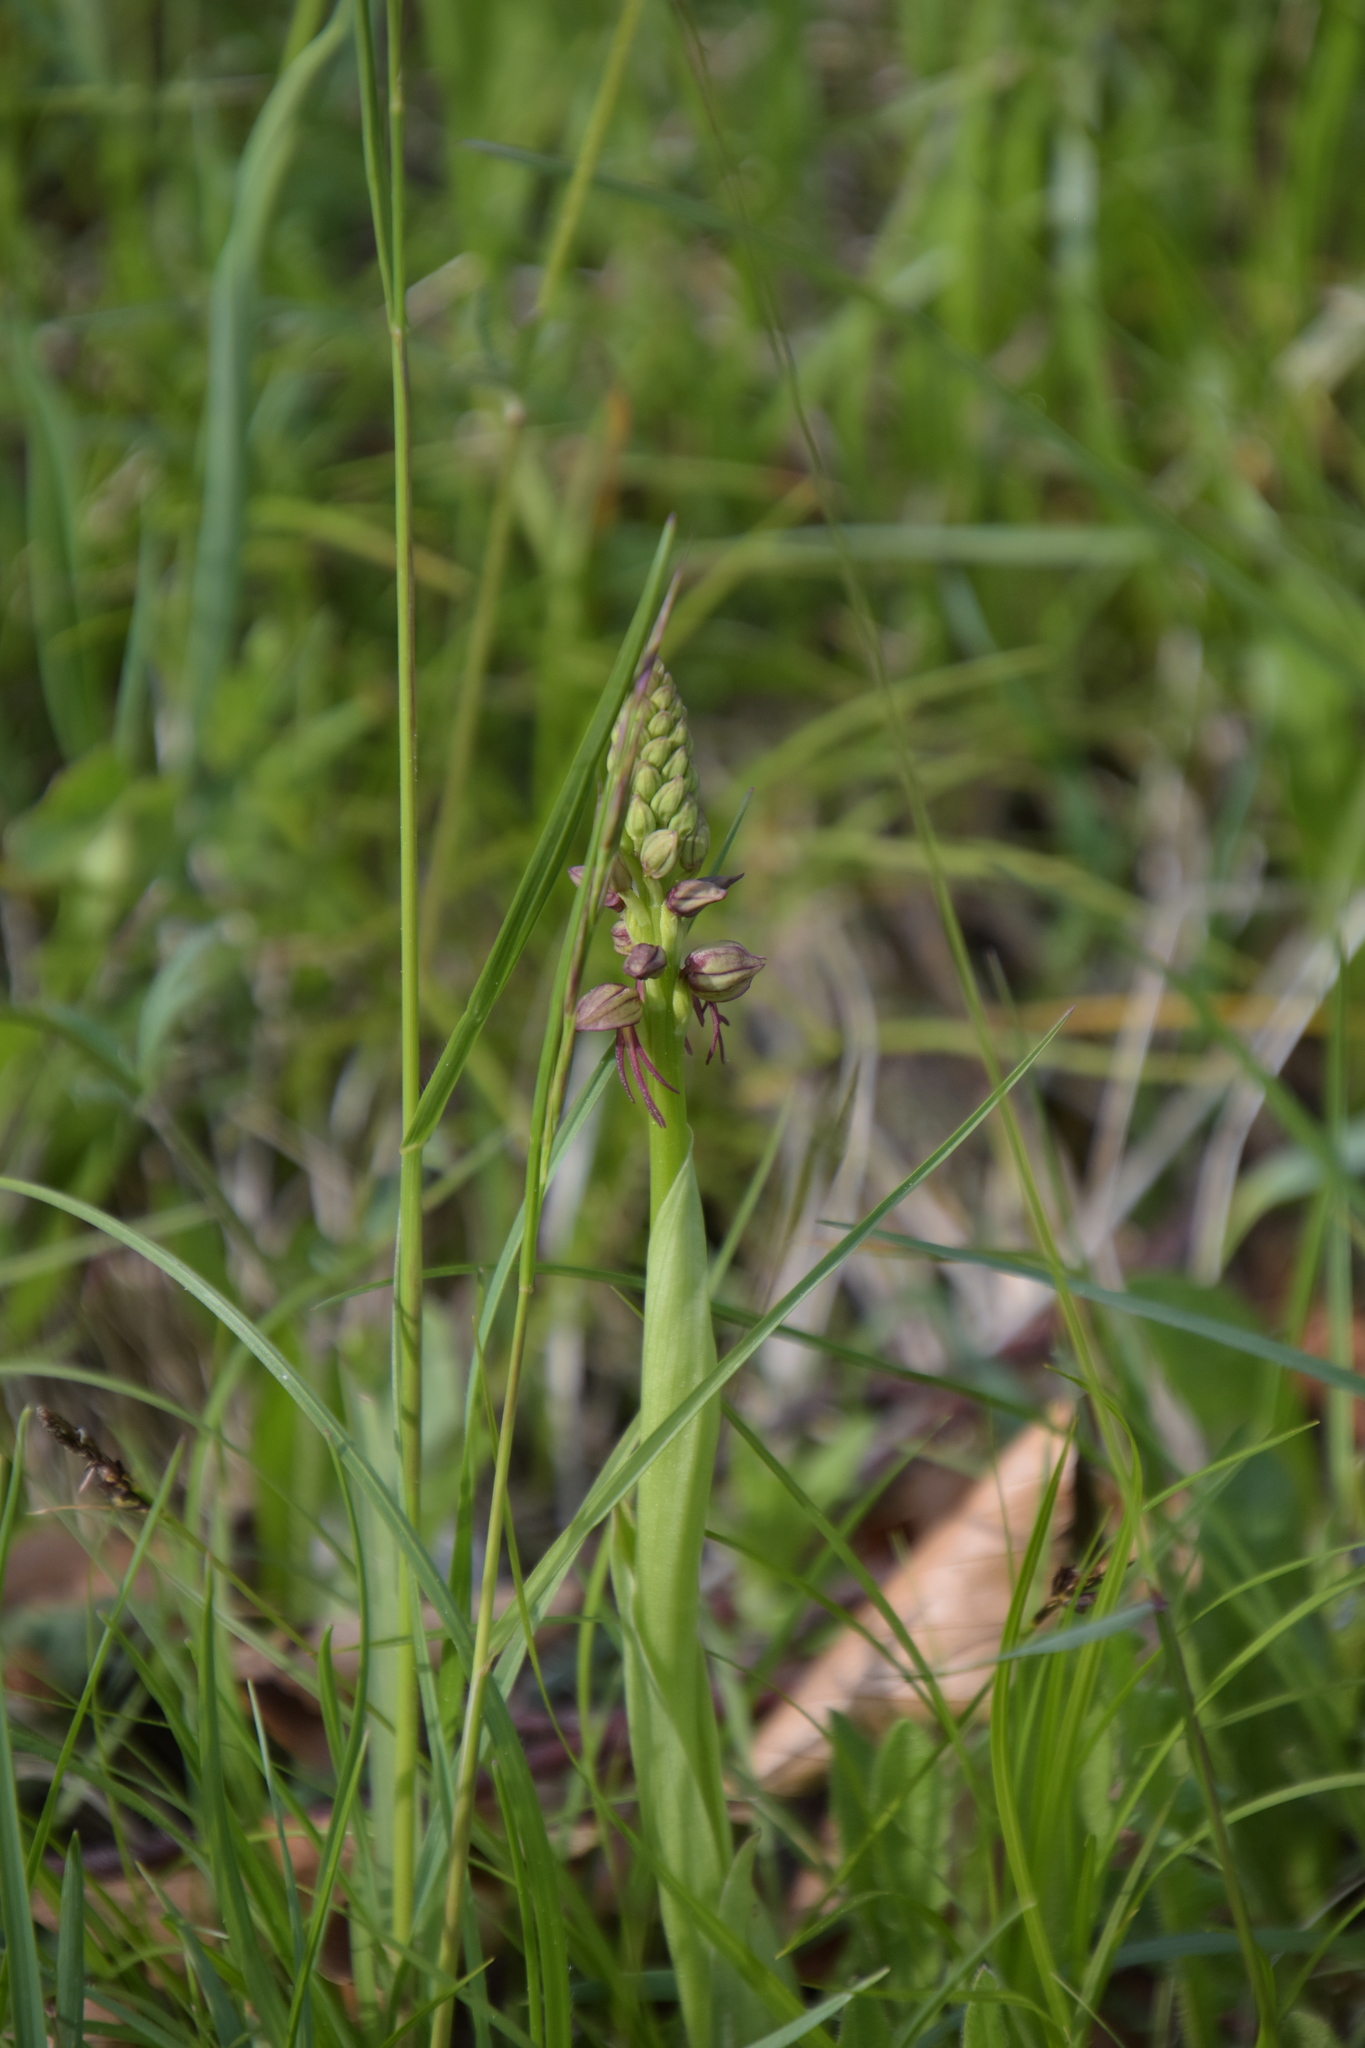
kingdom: Plantae
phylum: Tracheophyta
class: Liliopsida
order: Asparagales
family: Orchidaceae
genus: Orchis
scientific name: Orchis anthropophora
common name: Man orchid
